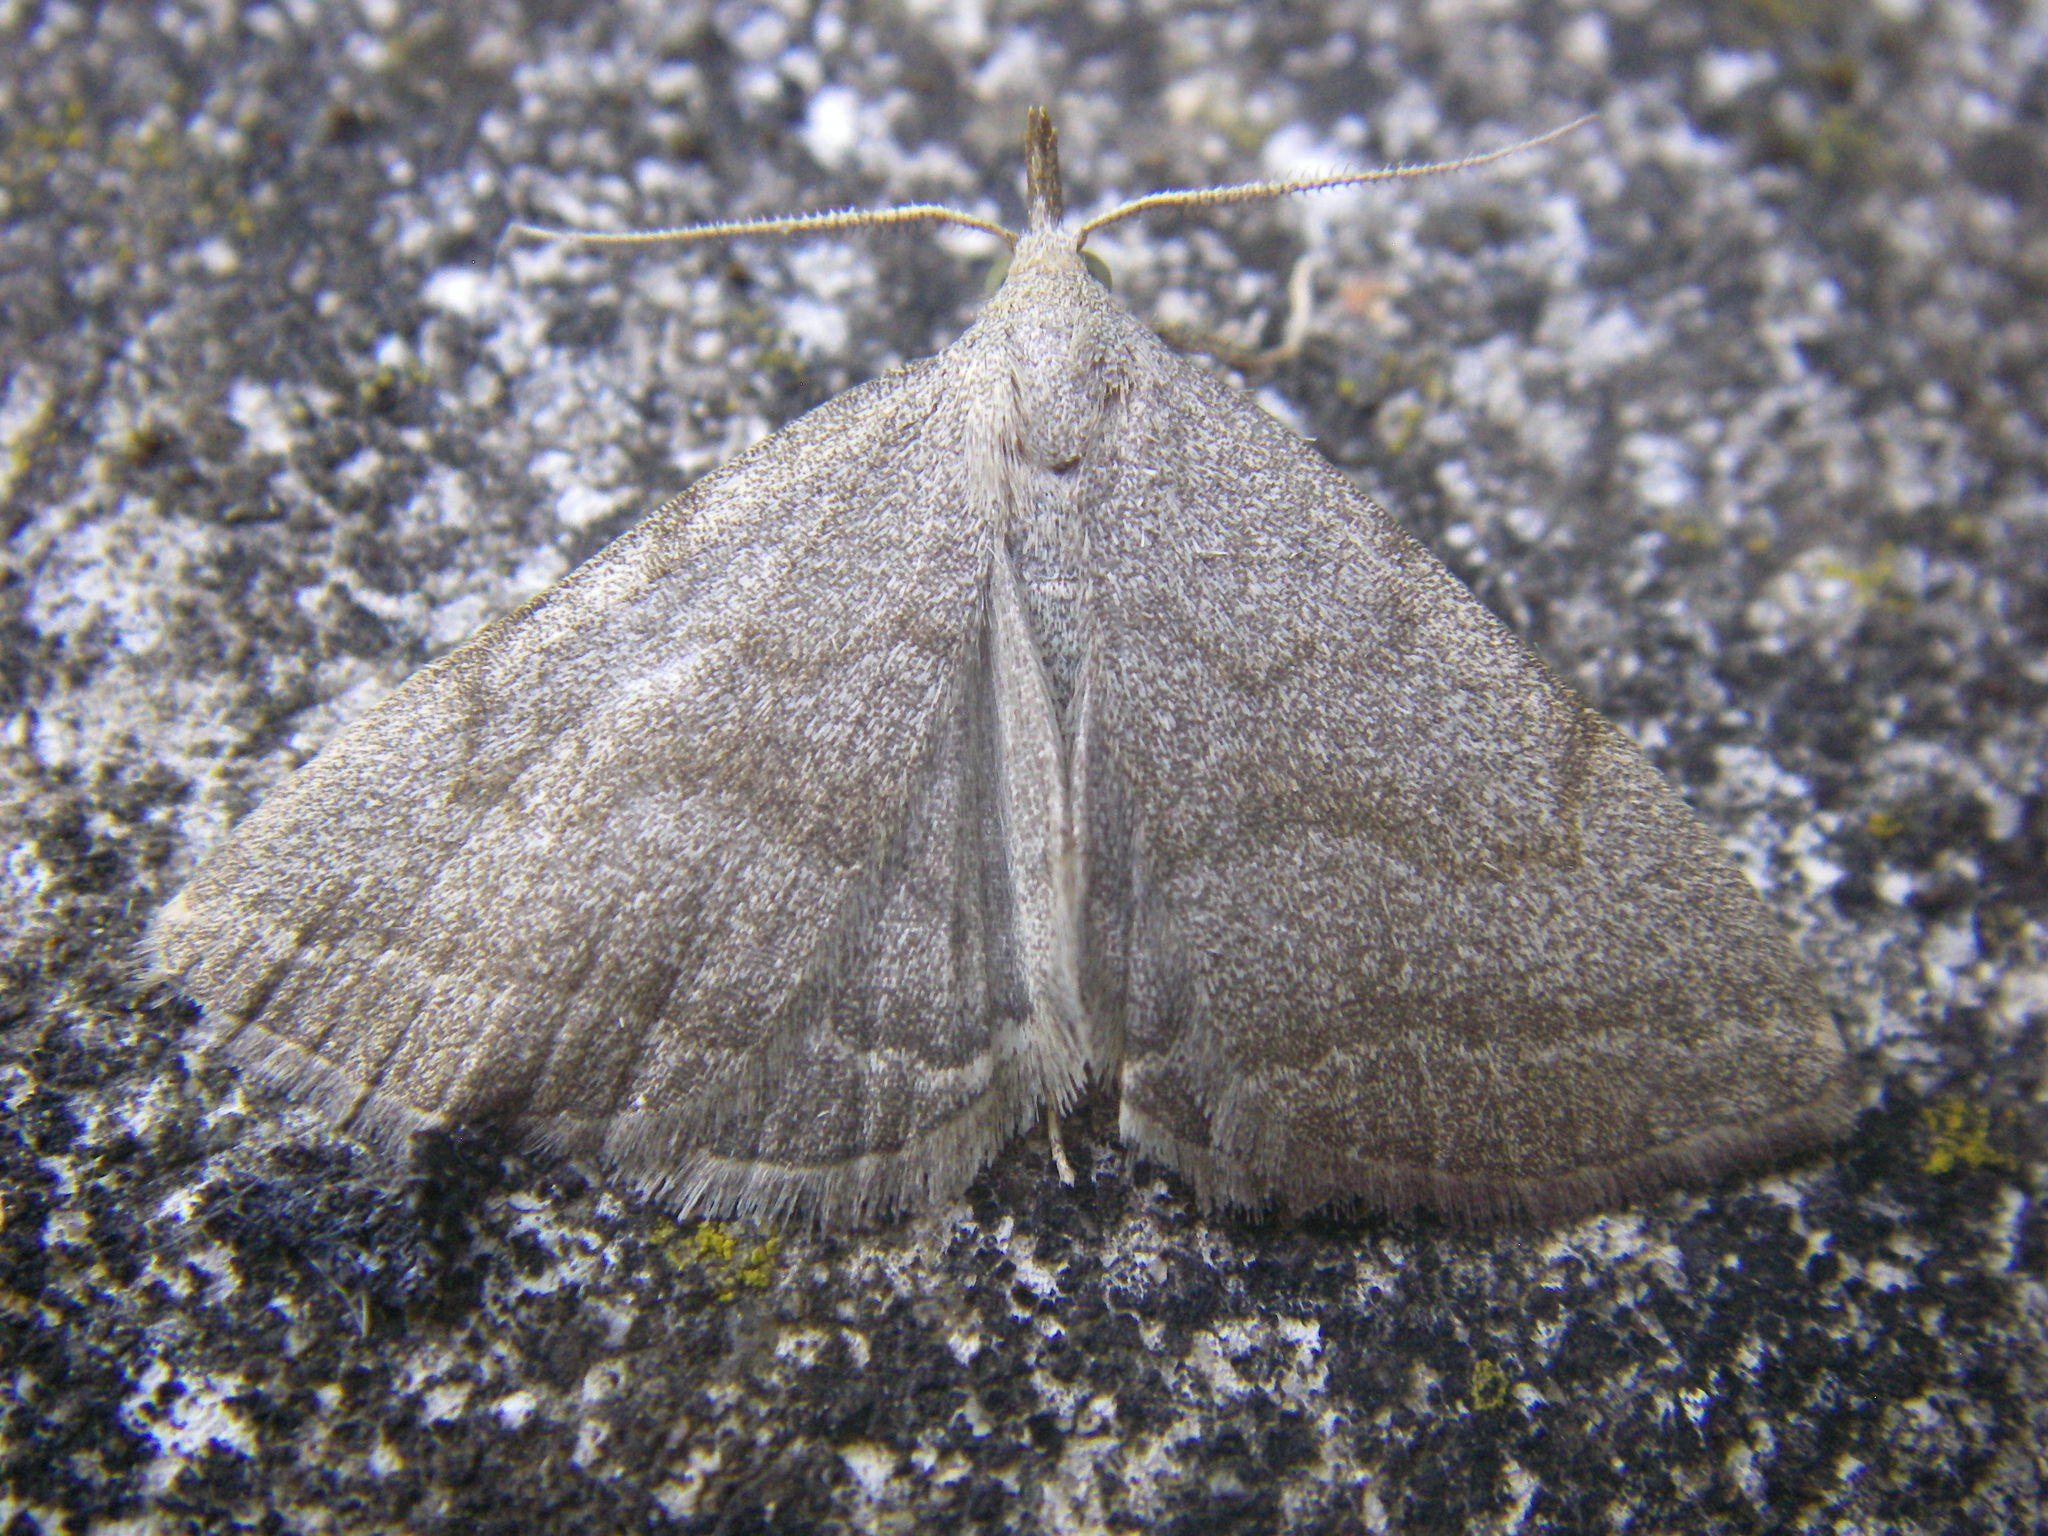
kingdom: Animalia
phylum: Arthropoda
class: Insecta
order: Lepidoptera
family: Erebidae
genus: Pechipogo
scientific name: Pechipogo strigilata
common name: Common fan-foot
